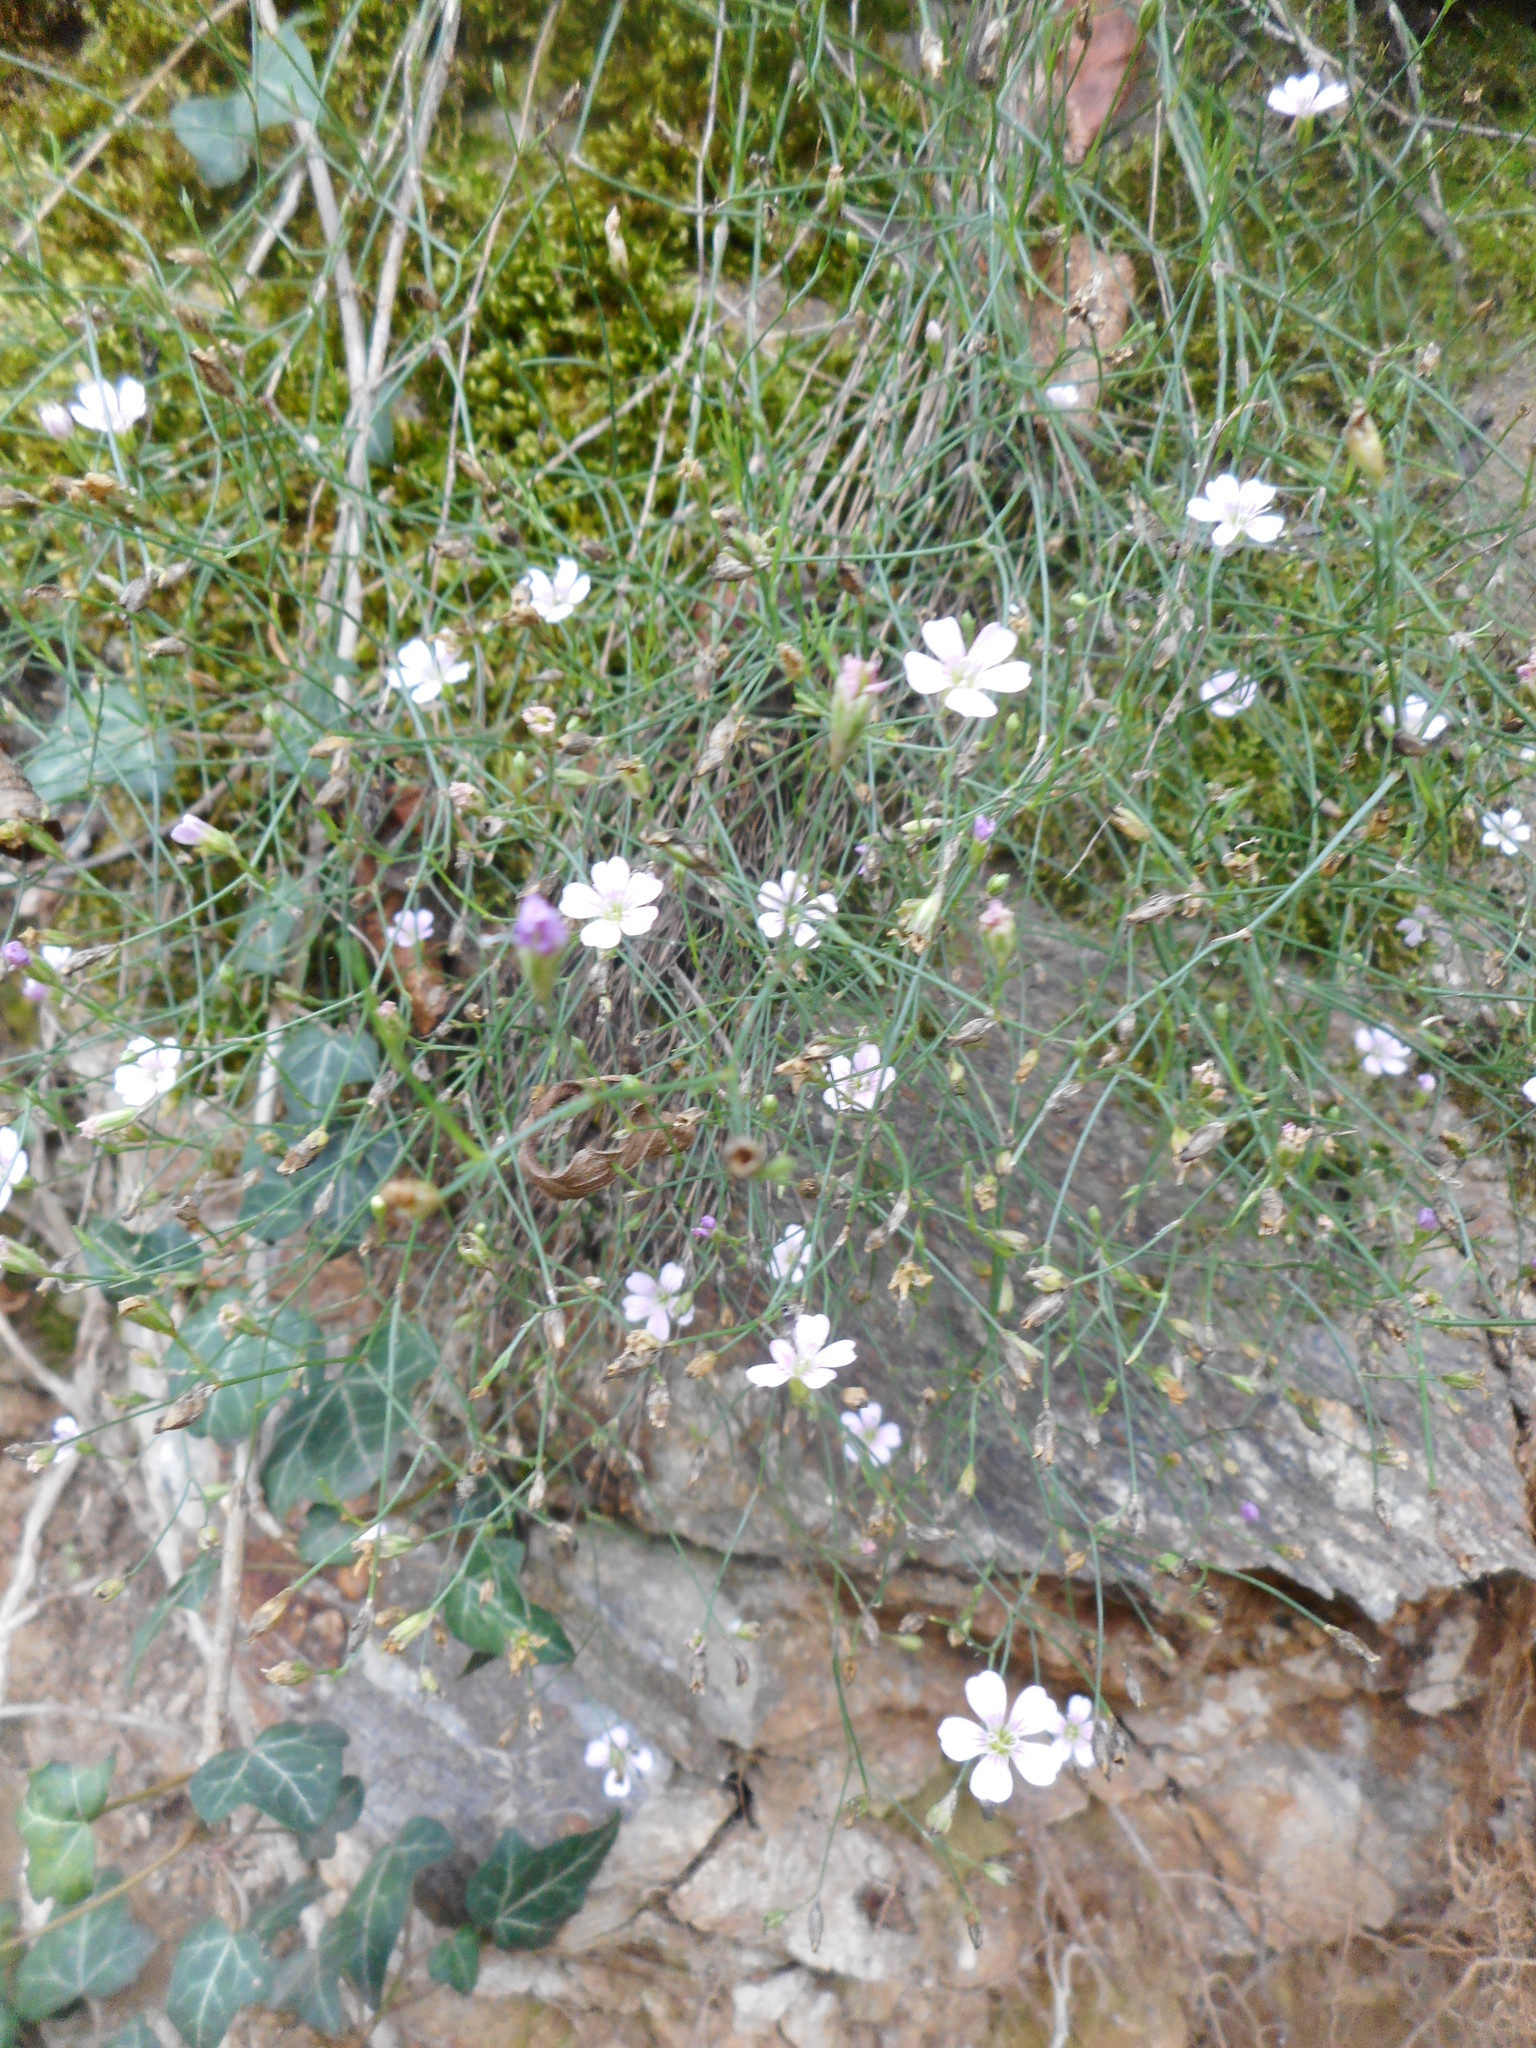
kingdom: Plantae
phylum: Tracheophyta
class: Magnoliopsida
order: Caryophyllales
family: Caryophyllaceae
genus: Petrorhagia
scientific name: Petrorhagia saxifraga
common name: Tunicflower
